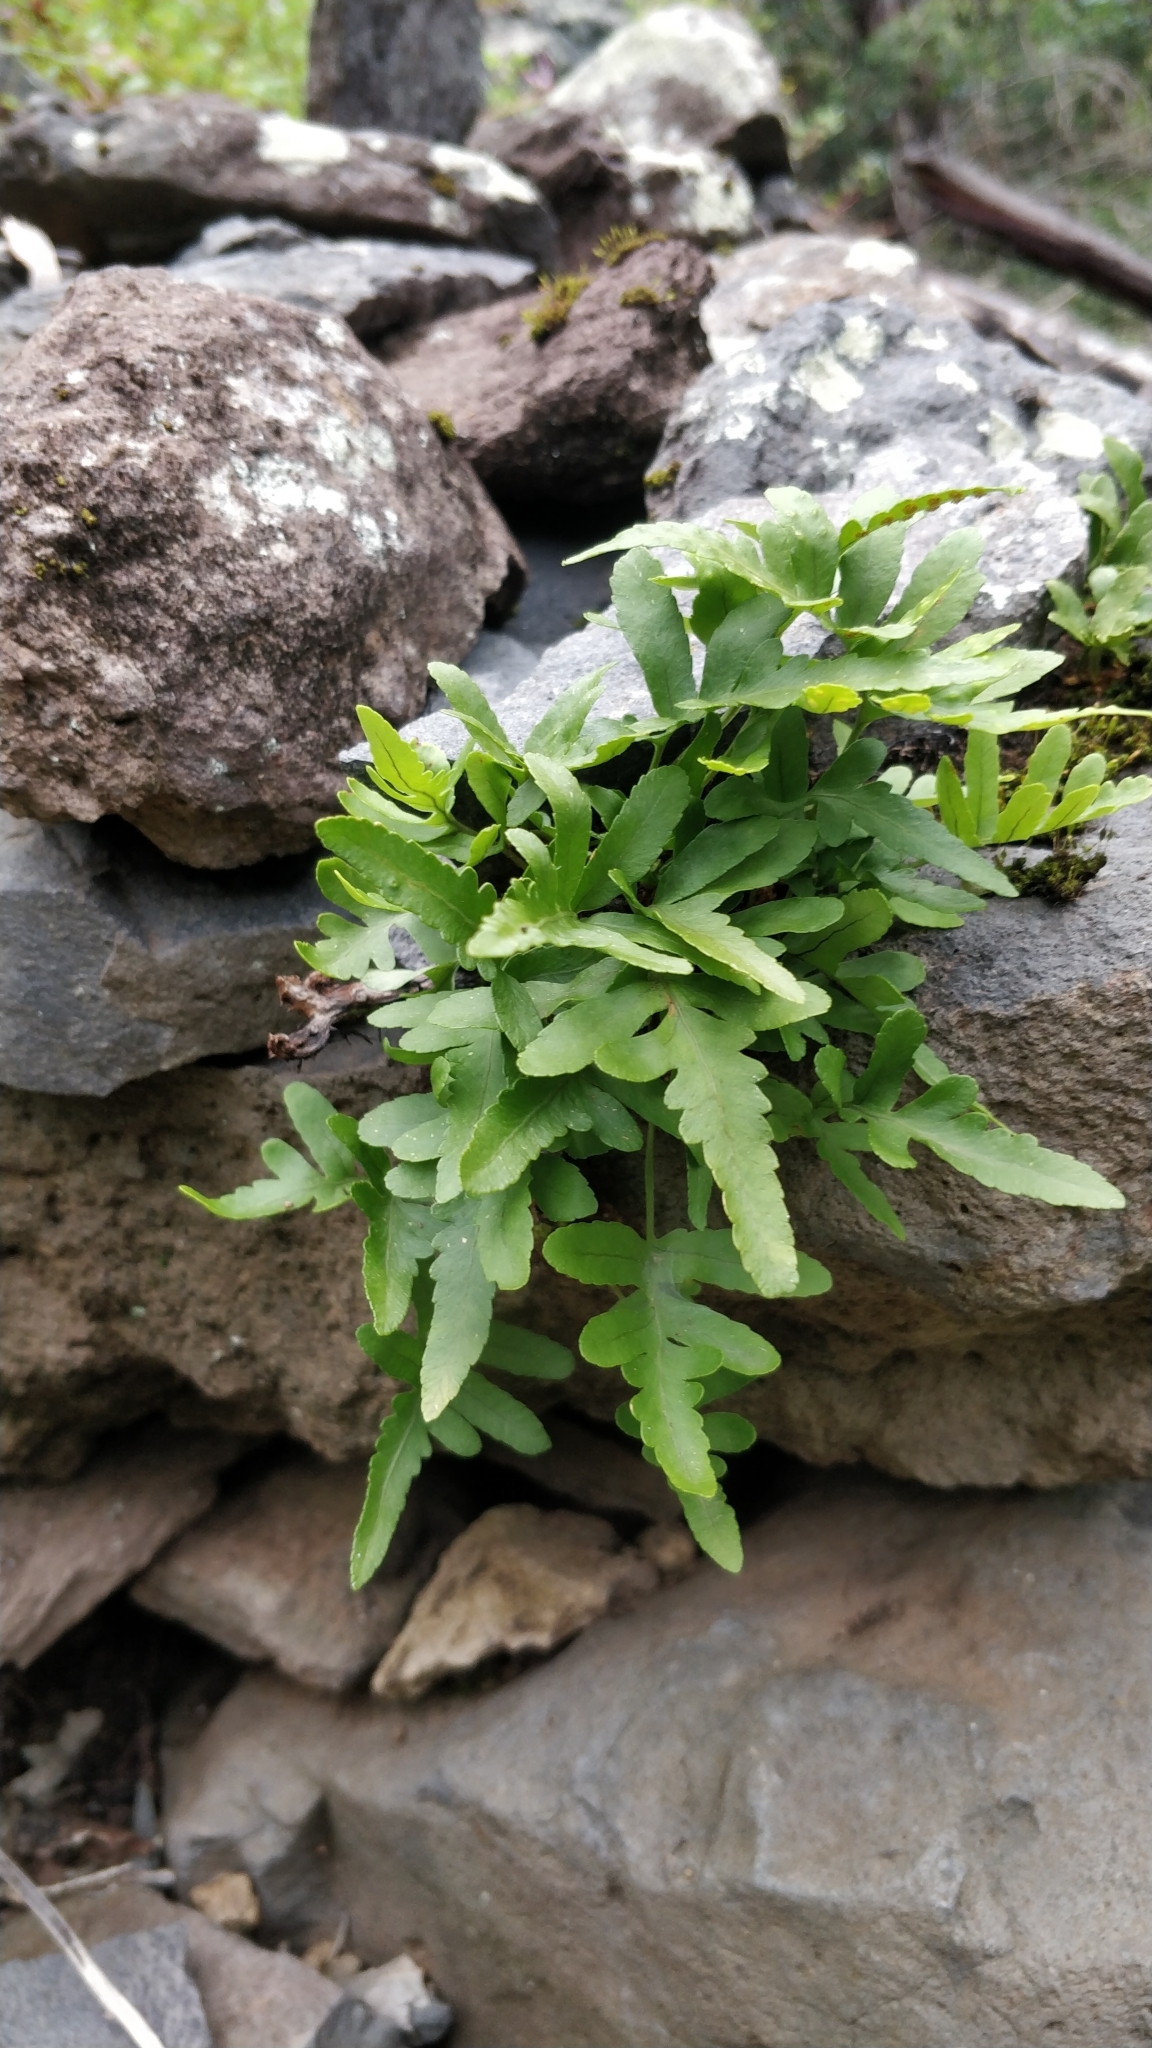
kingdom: Plantae
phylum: Tracheophyta
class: Polypodiopsida
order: Polypodiales
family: Polypodiaceae
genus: Polypodium
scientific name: Polypodium macaronesicum
